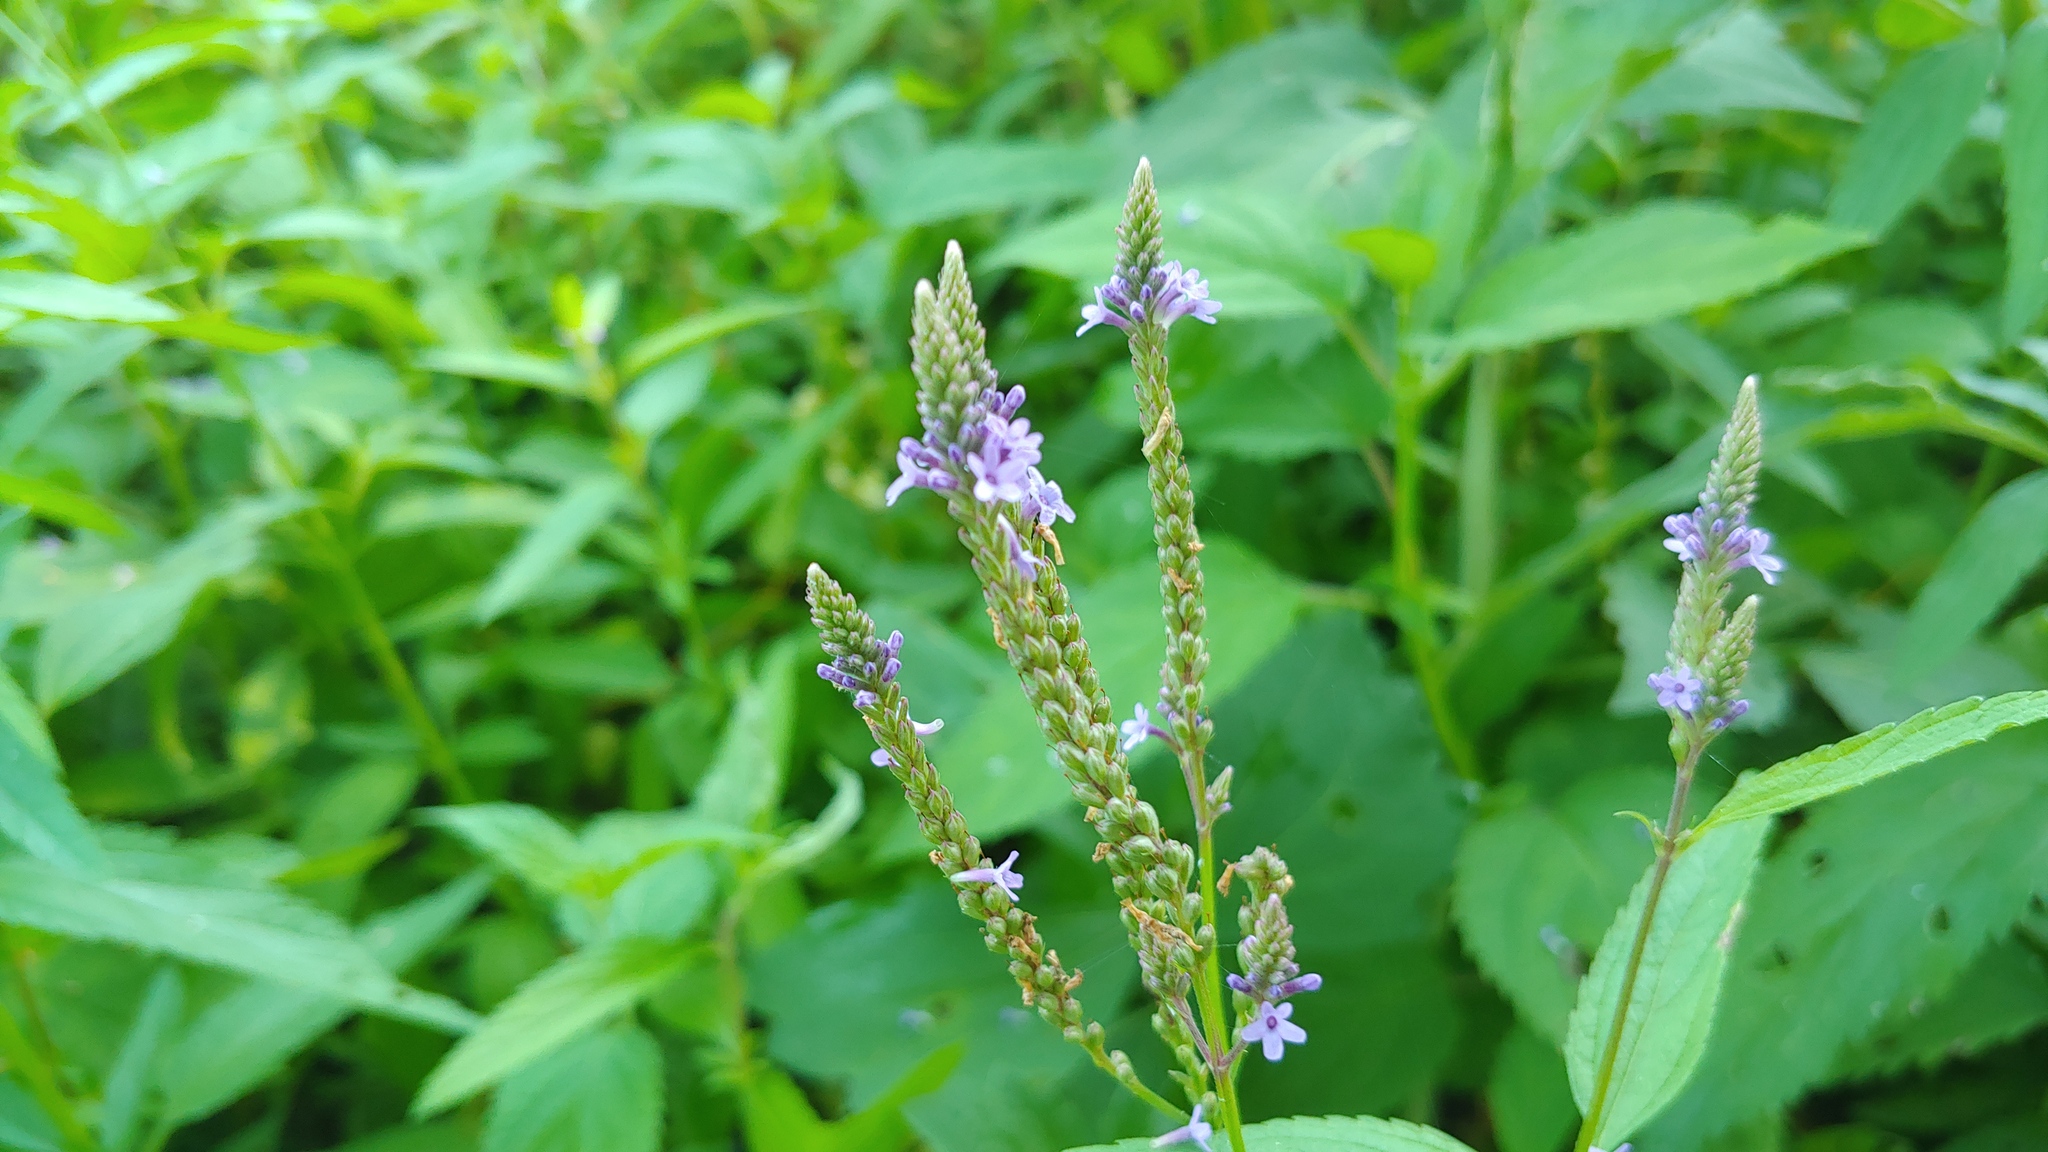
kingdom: Plantae
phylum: Tracheophyta
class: Magnoliopsida
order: Lamiales
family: Verbenaceae
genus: Verbena
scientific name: Verbena hastata
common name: American blue vervain
